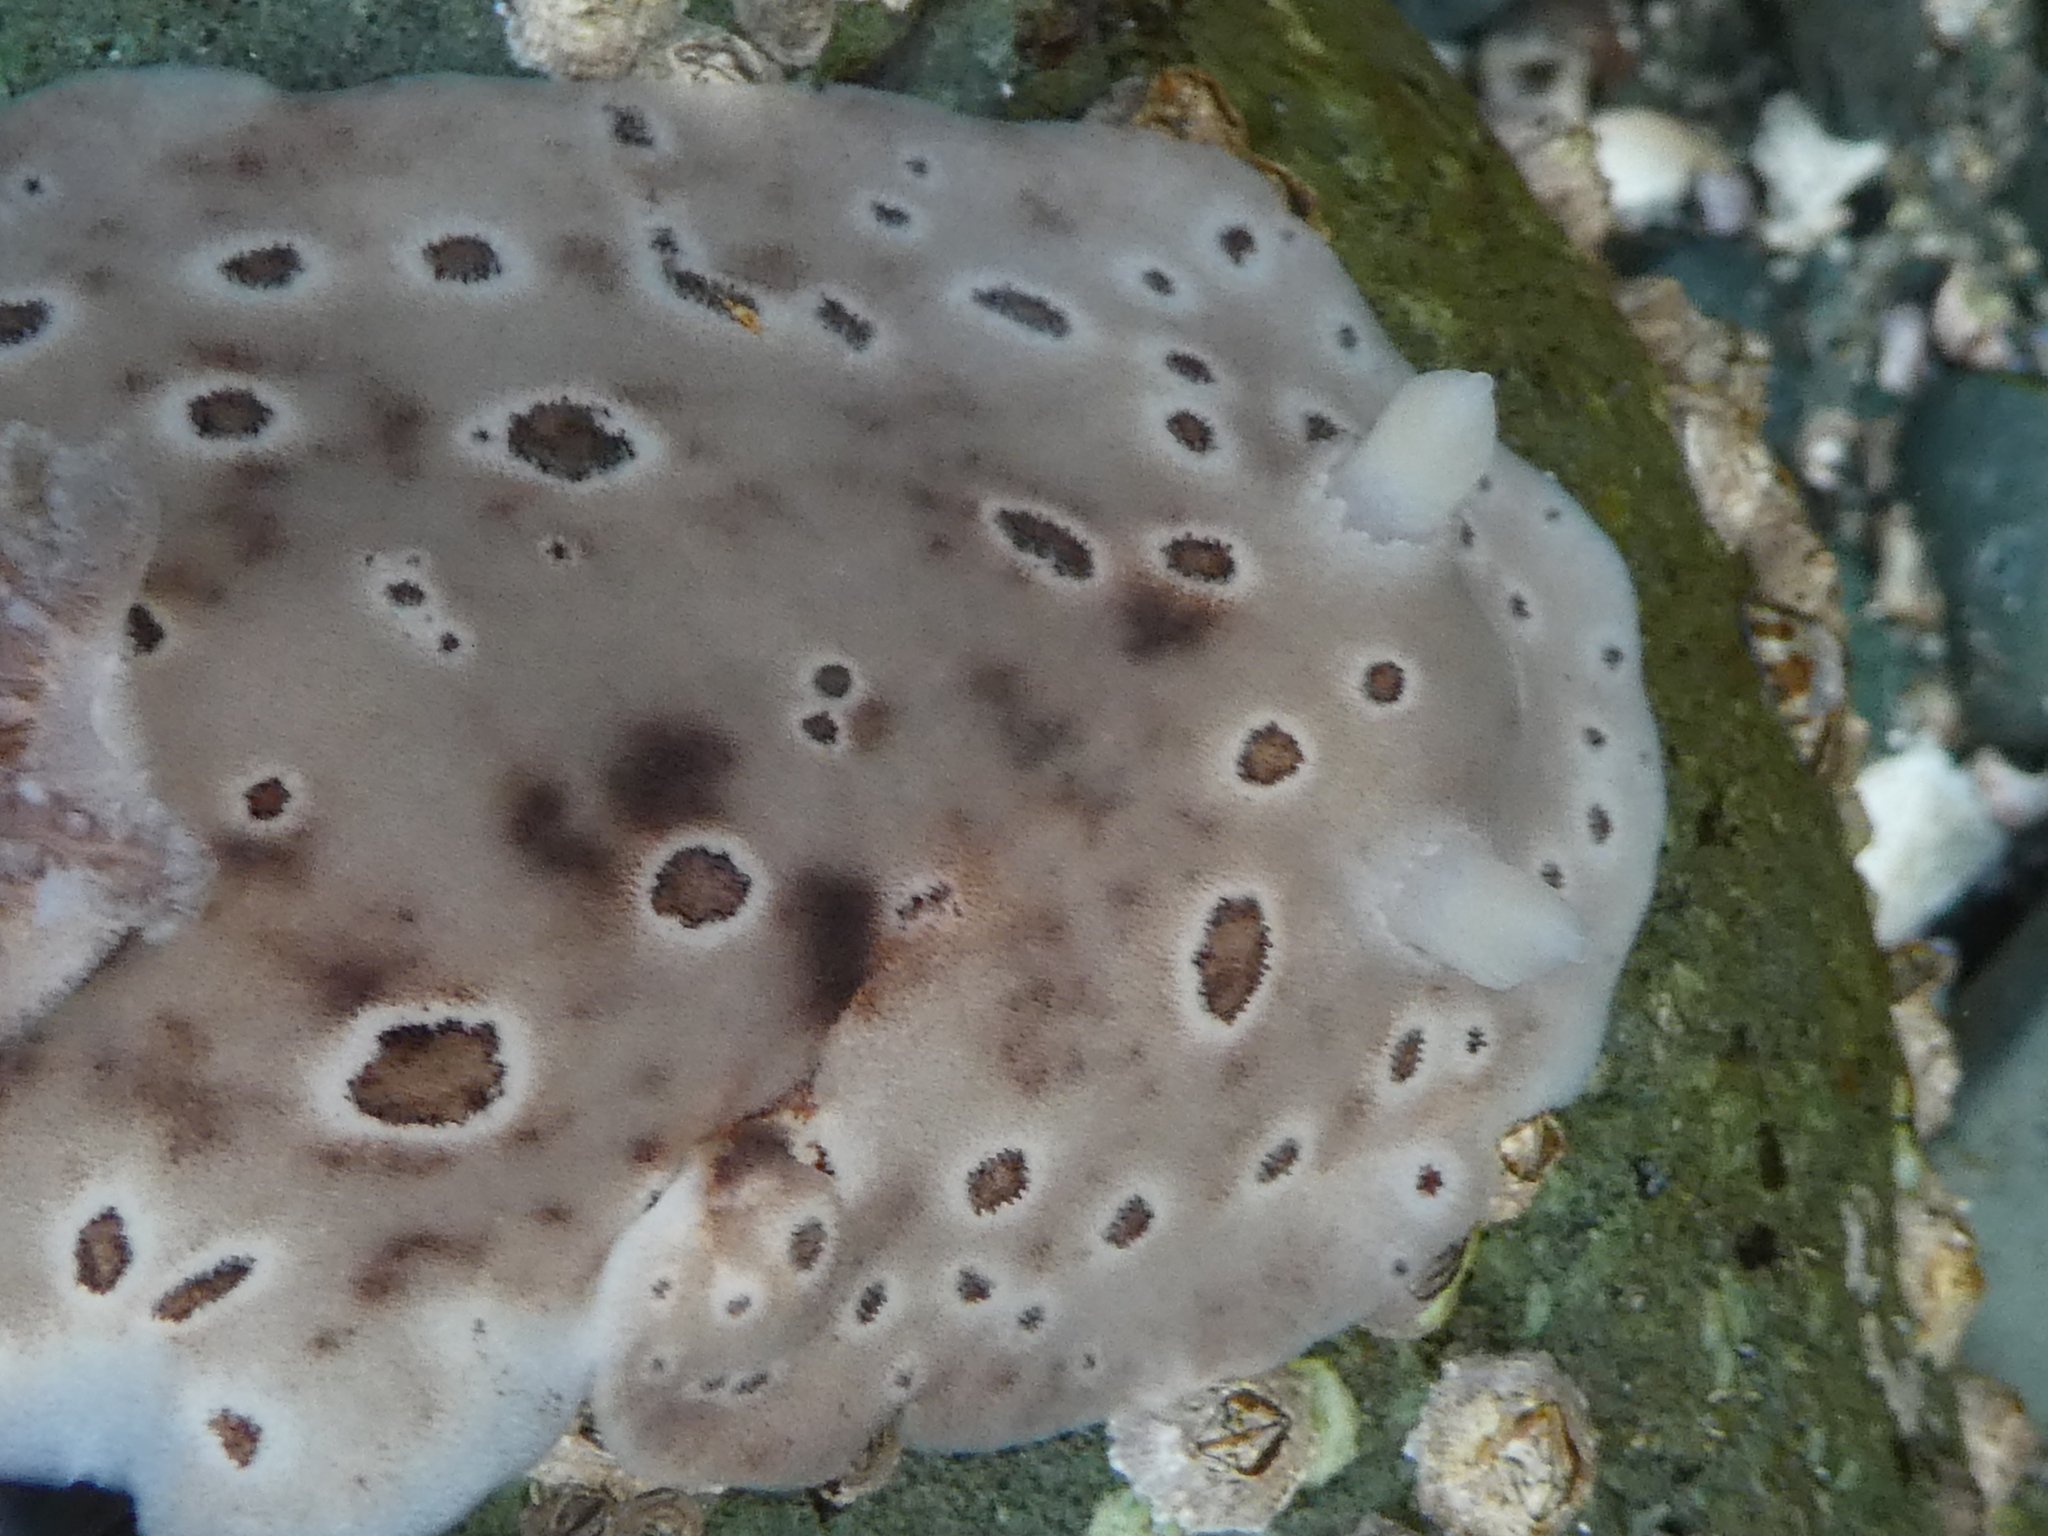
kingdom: Animalia
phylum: Mollusca
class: Gastropoda
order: Nudibranchia
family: Discodorididae
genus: Diaulula
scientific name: Diaulula odonoghuei
